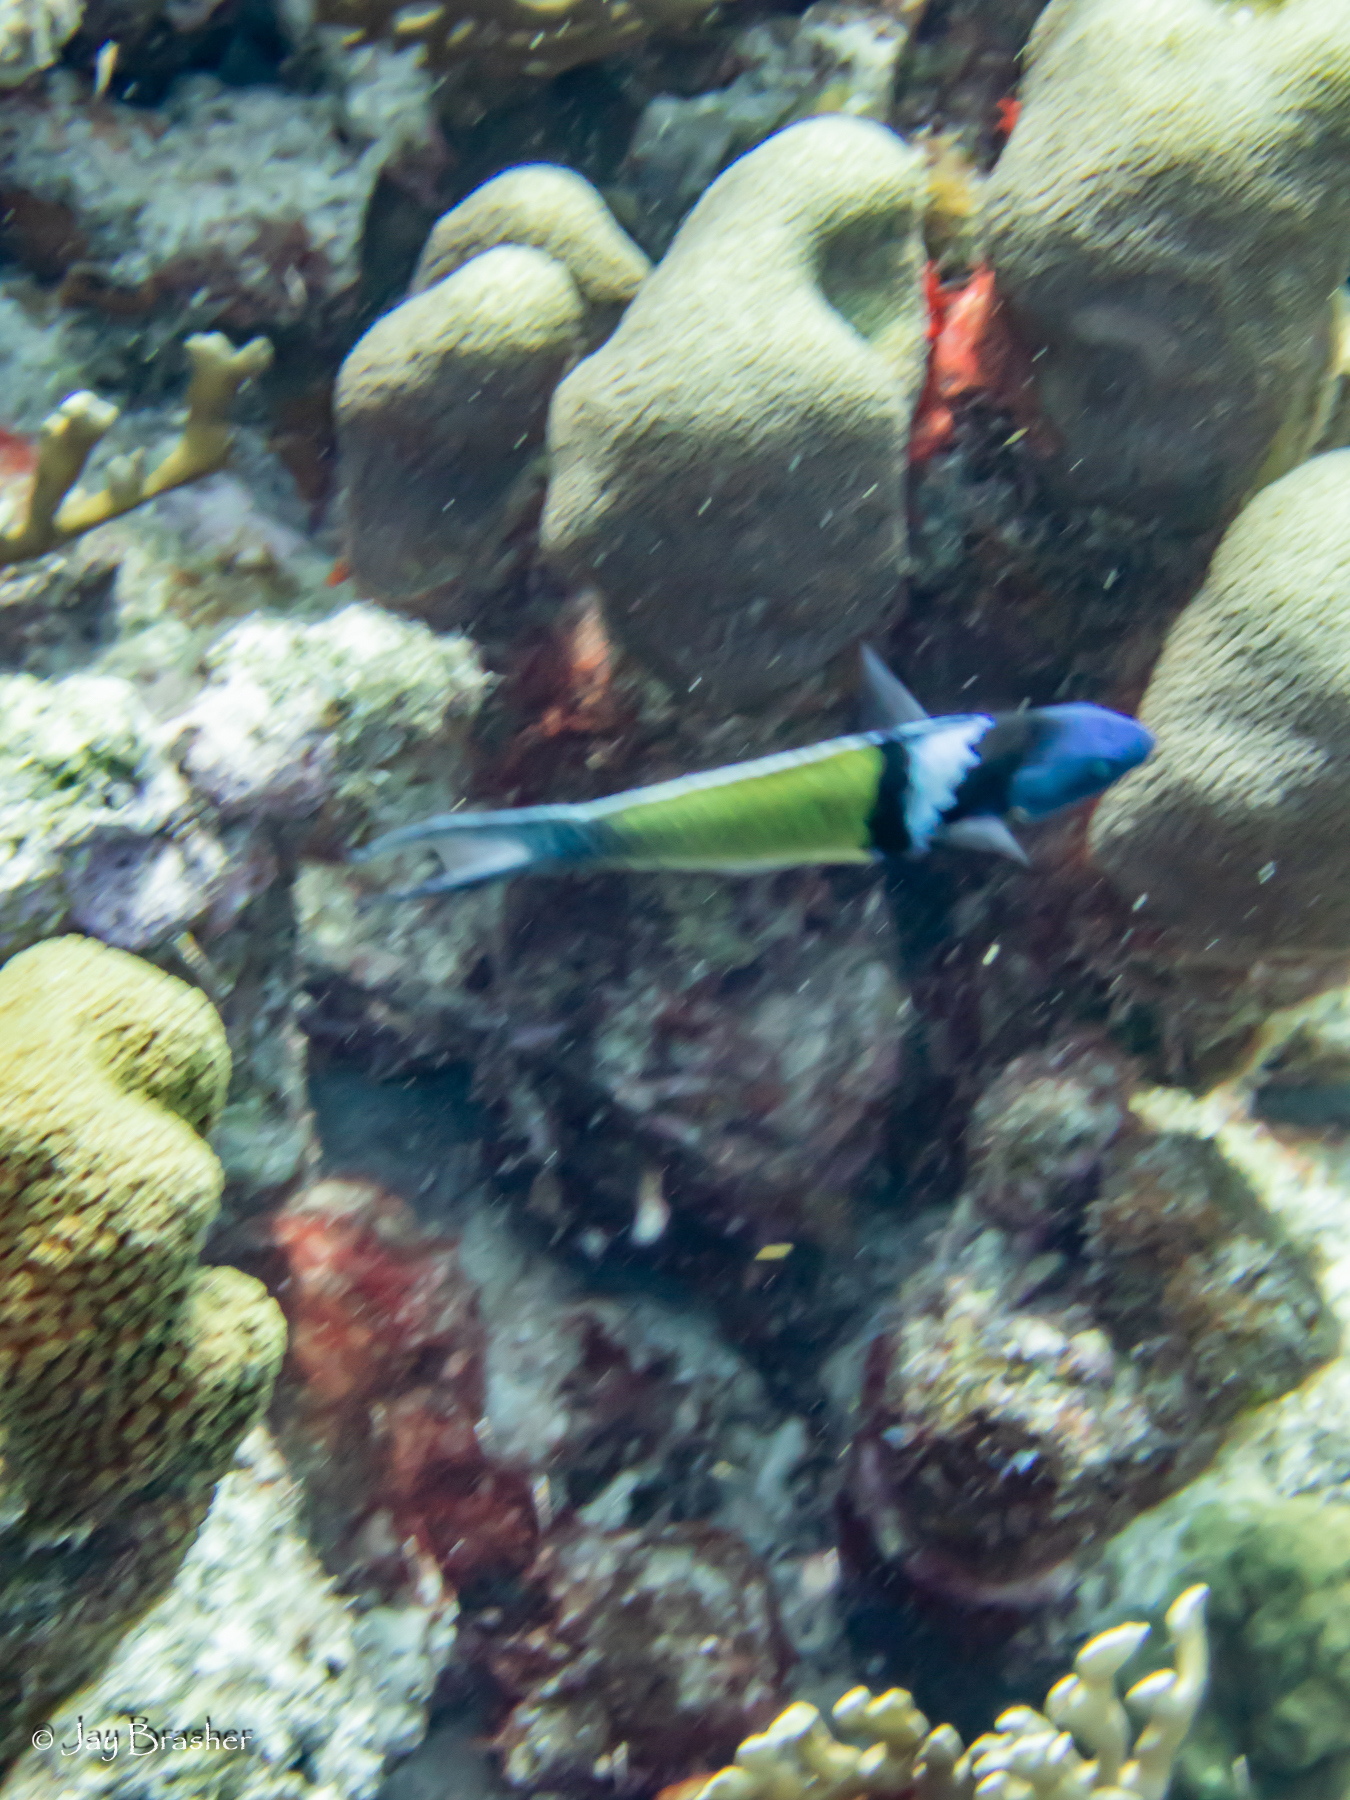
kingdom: Animalia
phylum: Chordata
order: Perciformes
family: Labridae
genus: Thalassoma
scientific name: Thalassoma bifasciatum
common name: Bluehead wrasse
